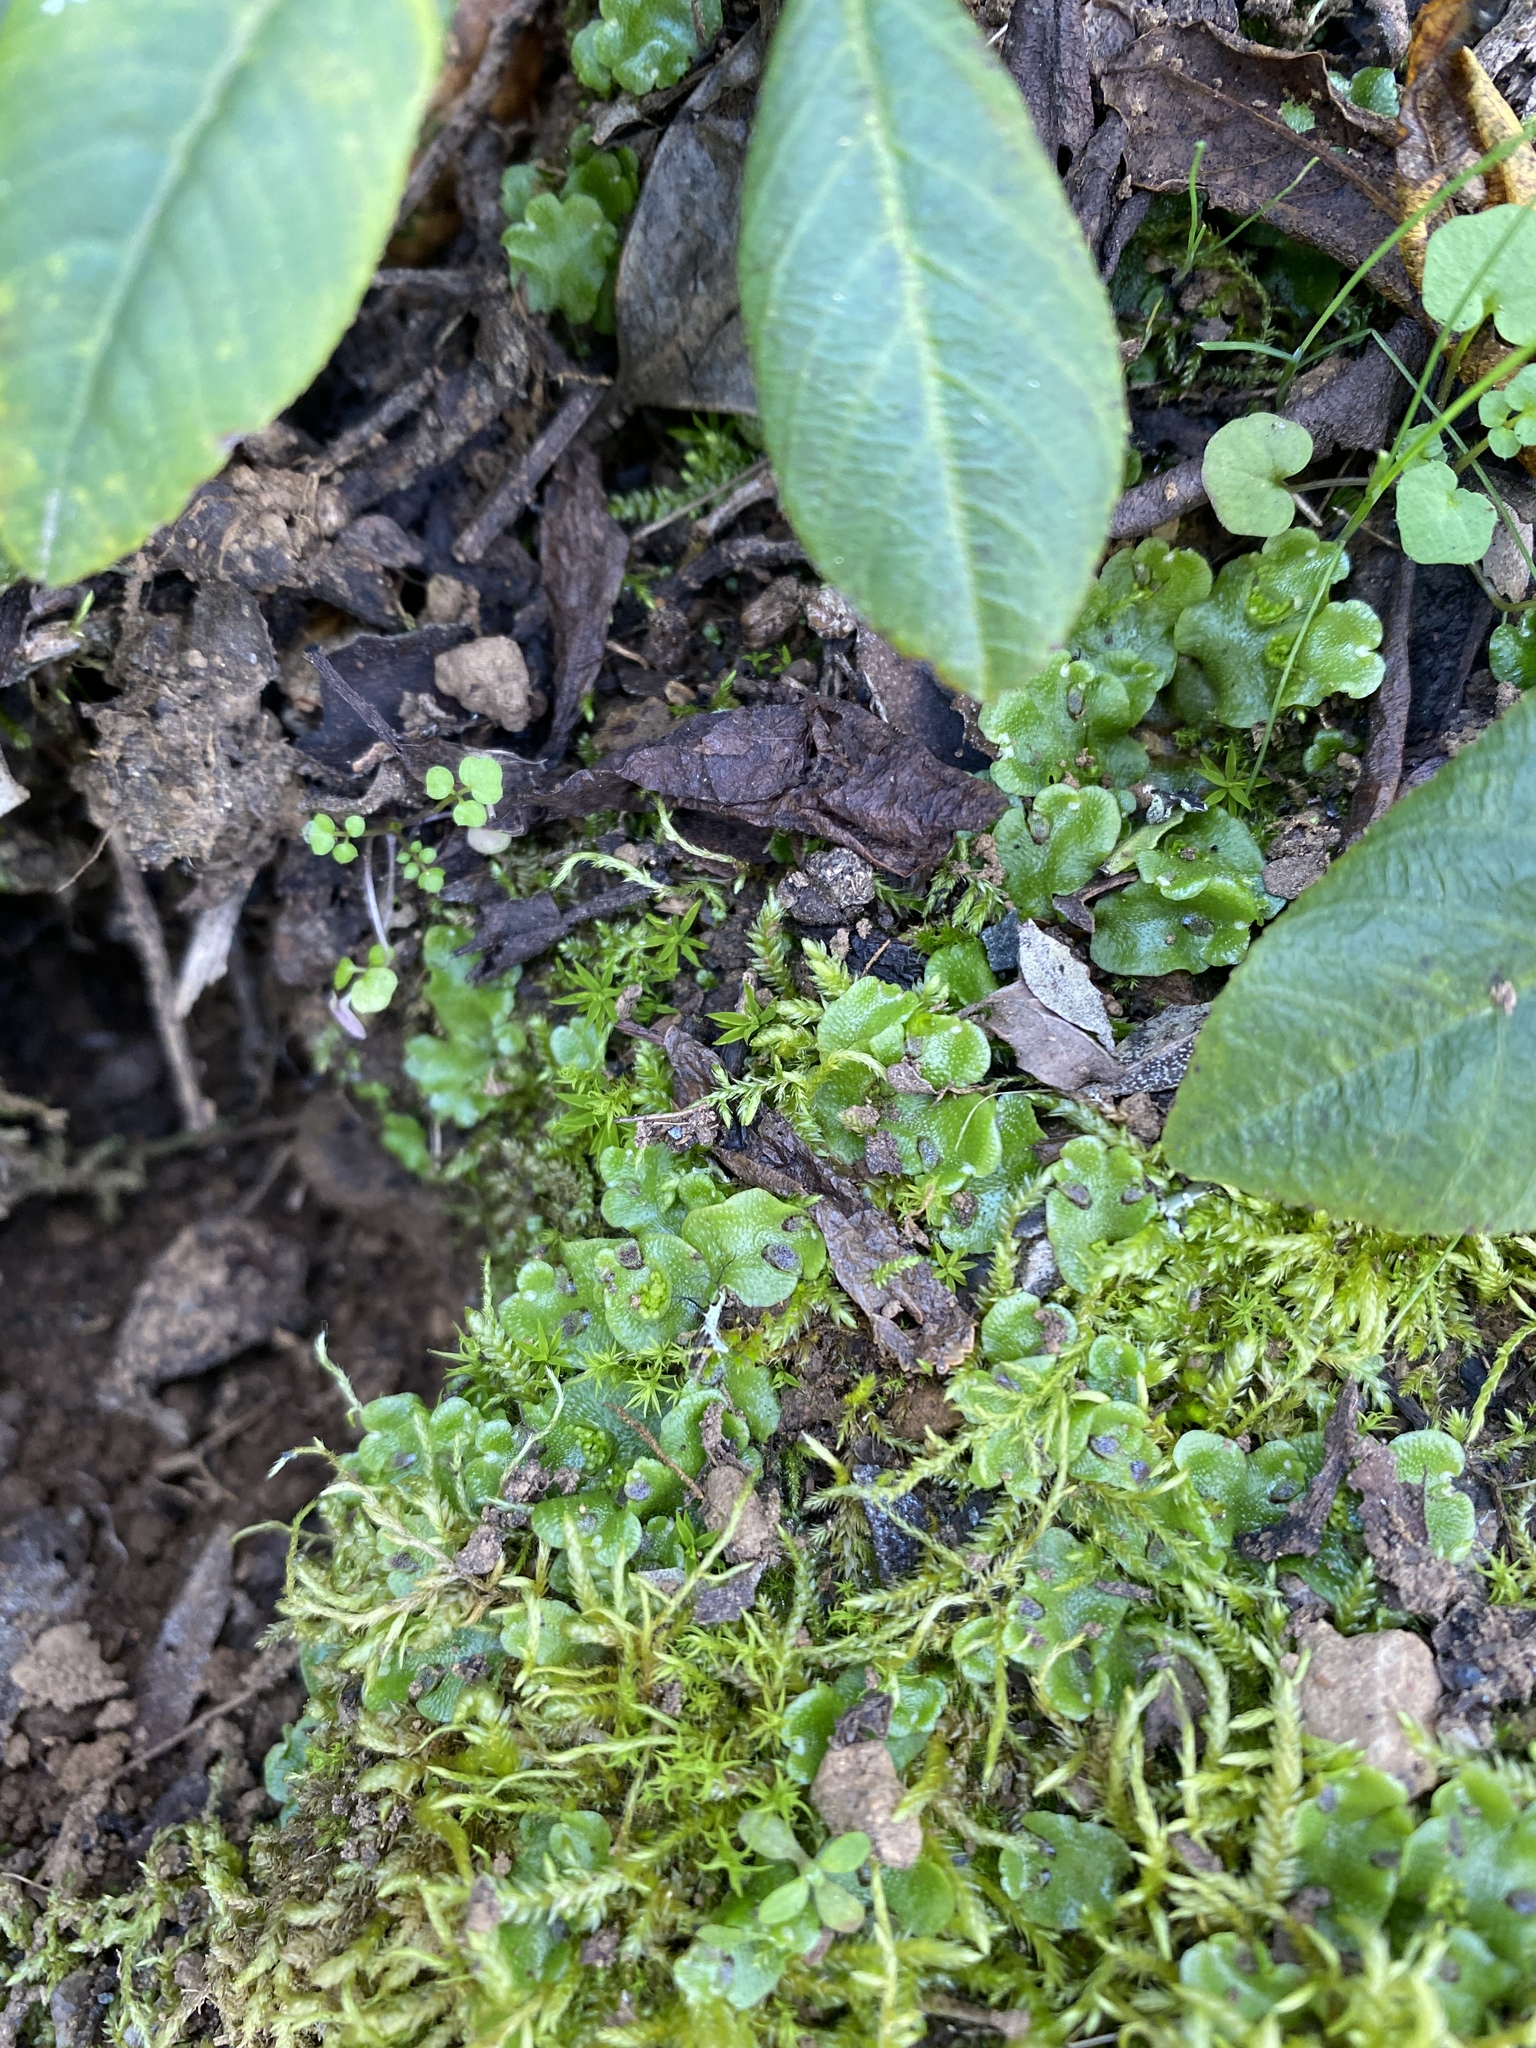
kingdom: Plantae
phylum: Marchantiophyta
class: Marchantiopsida
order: Lunulariales
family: Lunulariaceae
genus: Lunularia
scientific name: Lunularia cruciata
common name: Crescent-cup liverwort
